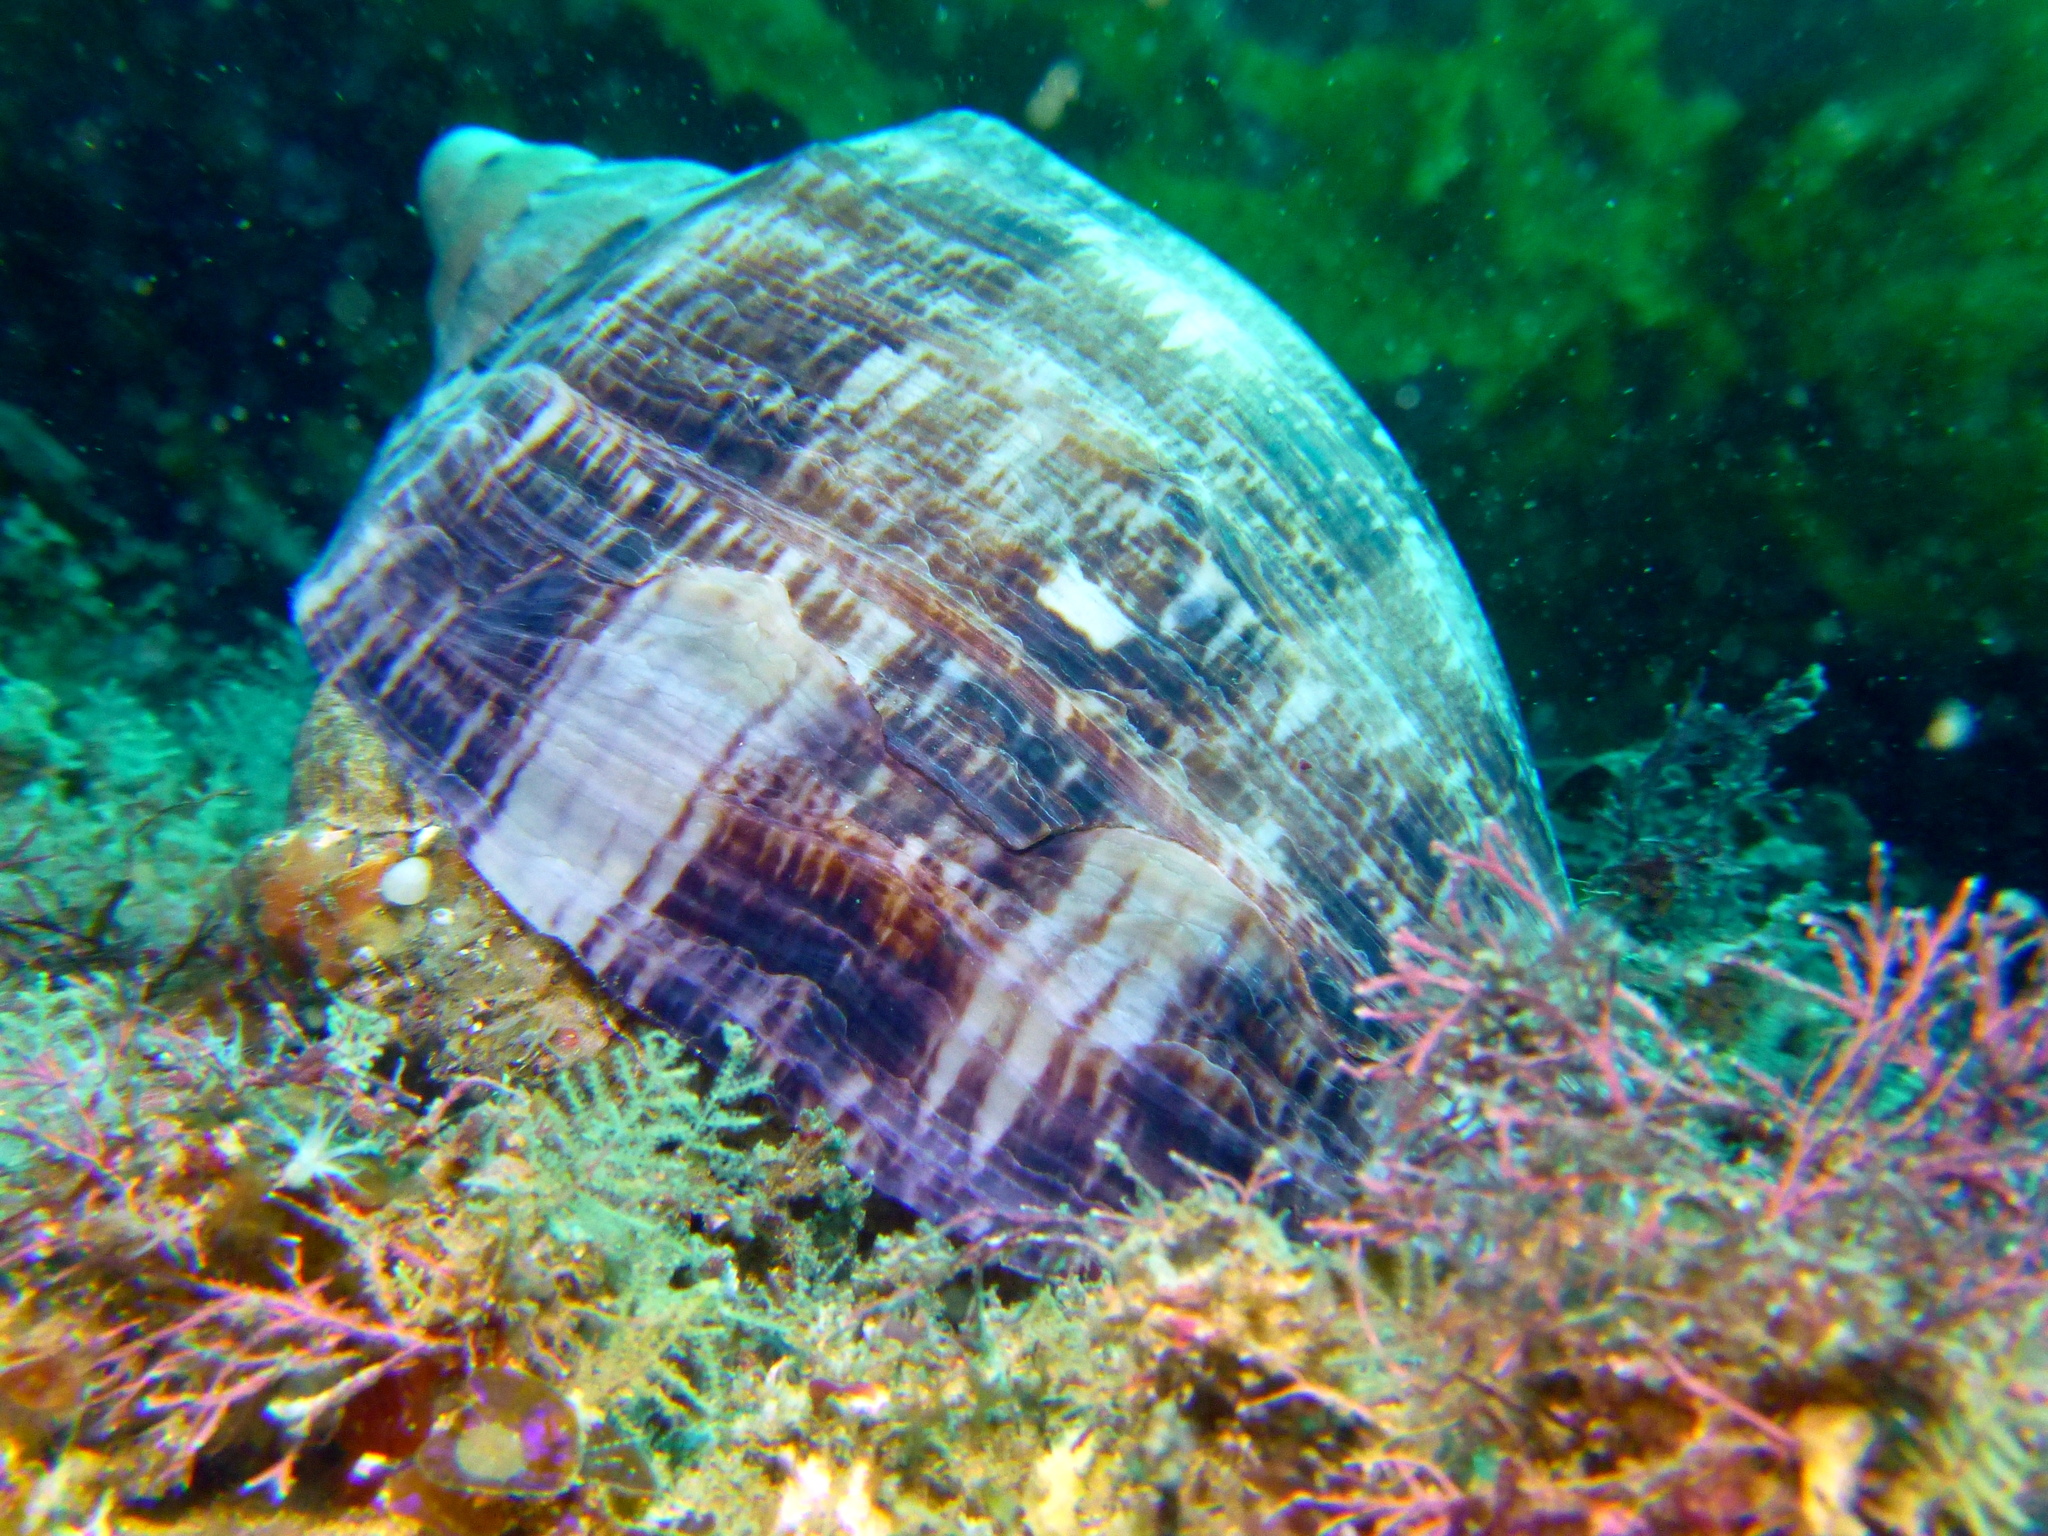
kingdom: Animalia
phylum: Mollusca
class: Gastropoda
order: Neogastropoda
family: Volutidae
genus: Cymbiola
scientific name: Cymbiola magnifica
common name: Magnificent volute
